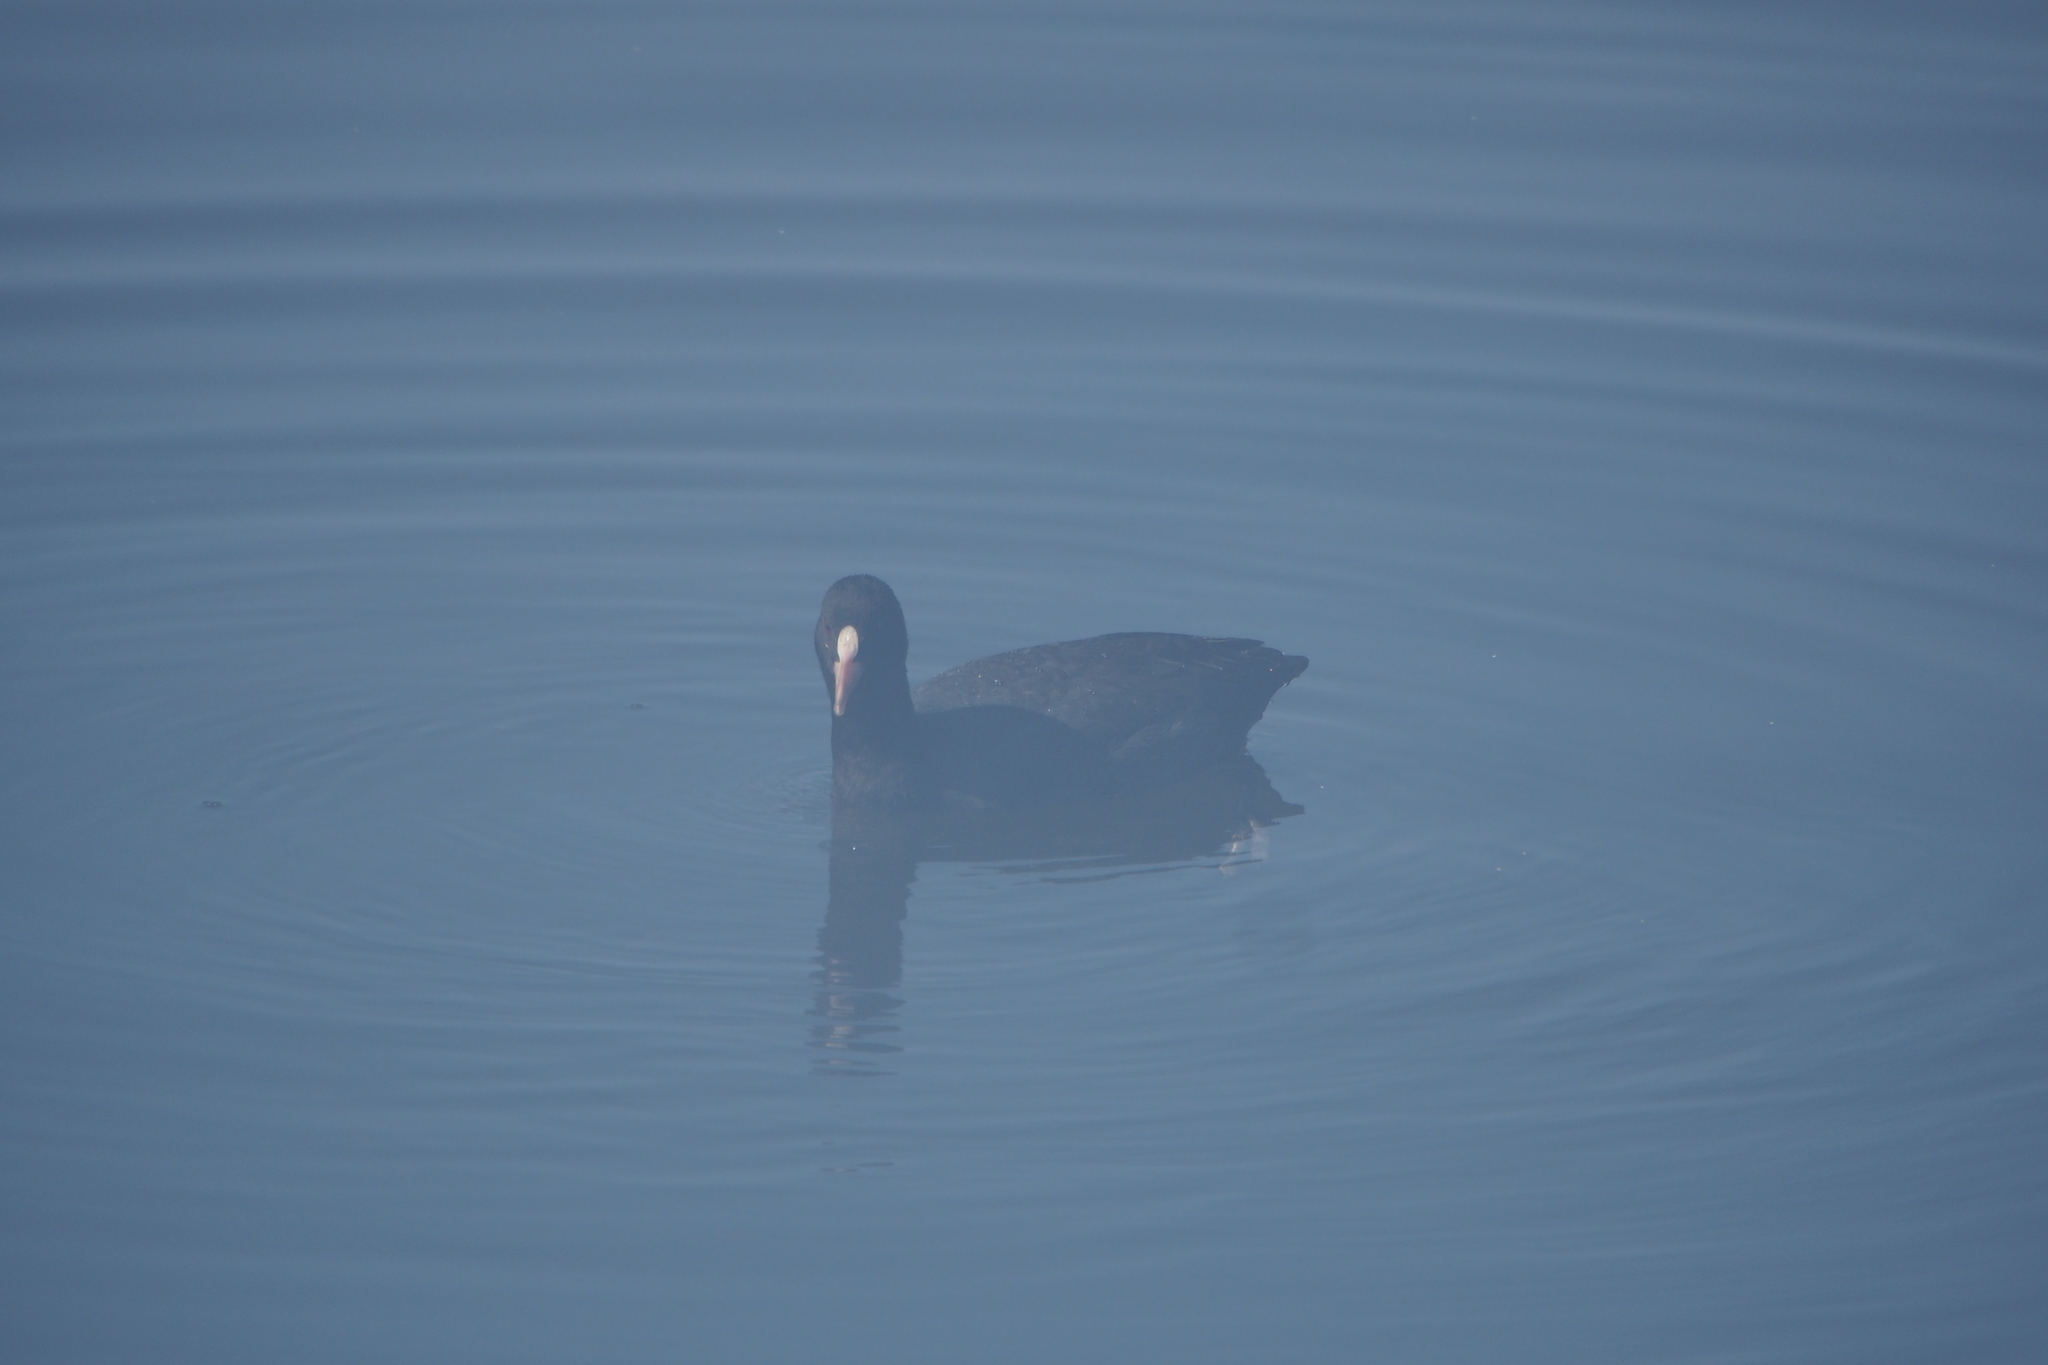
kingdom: Animalia
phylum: Chordata
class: Aves
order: Gruiformes
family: Rallidae
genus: Fulica
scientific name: Fulica atra
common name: Eurasian coot
